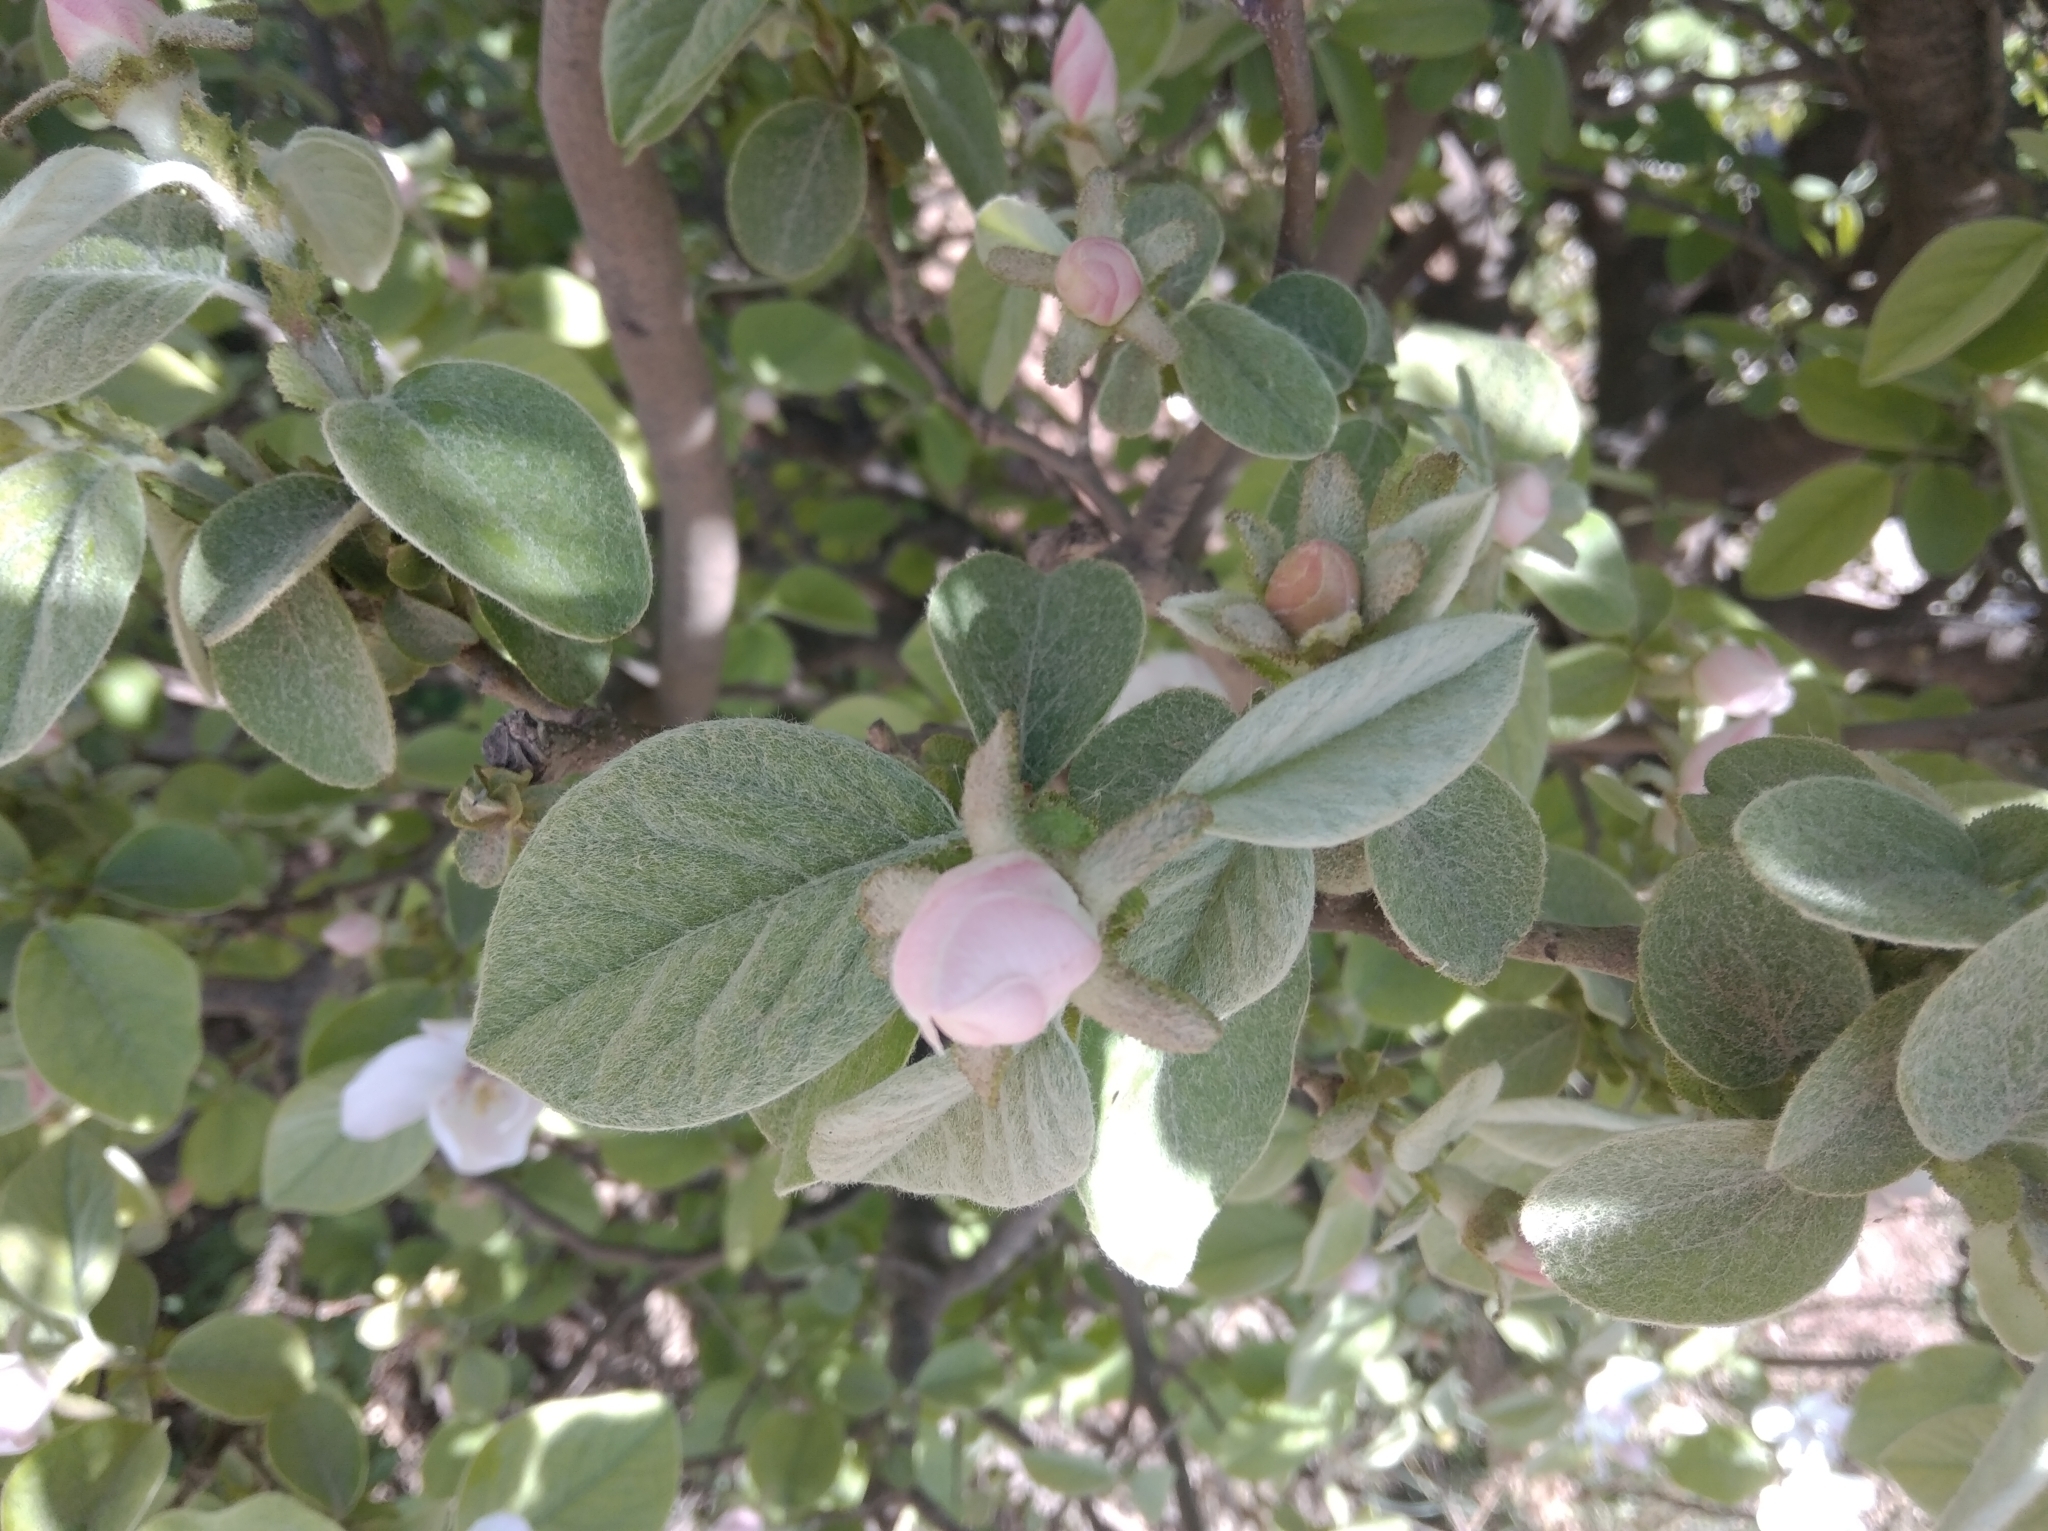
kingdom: Plantae
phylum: Tracheophyta
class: Magnoliopsida
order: Rosales
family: Rosaceae
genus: Cydonia
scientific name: Cydonia oblonga
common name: Quince
